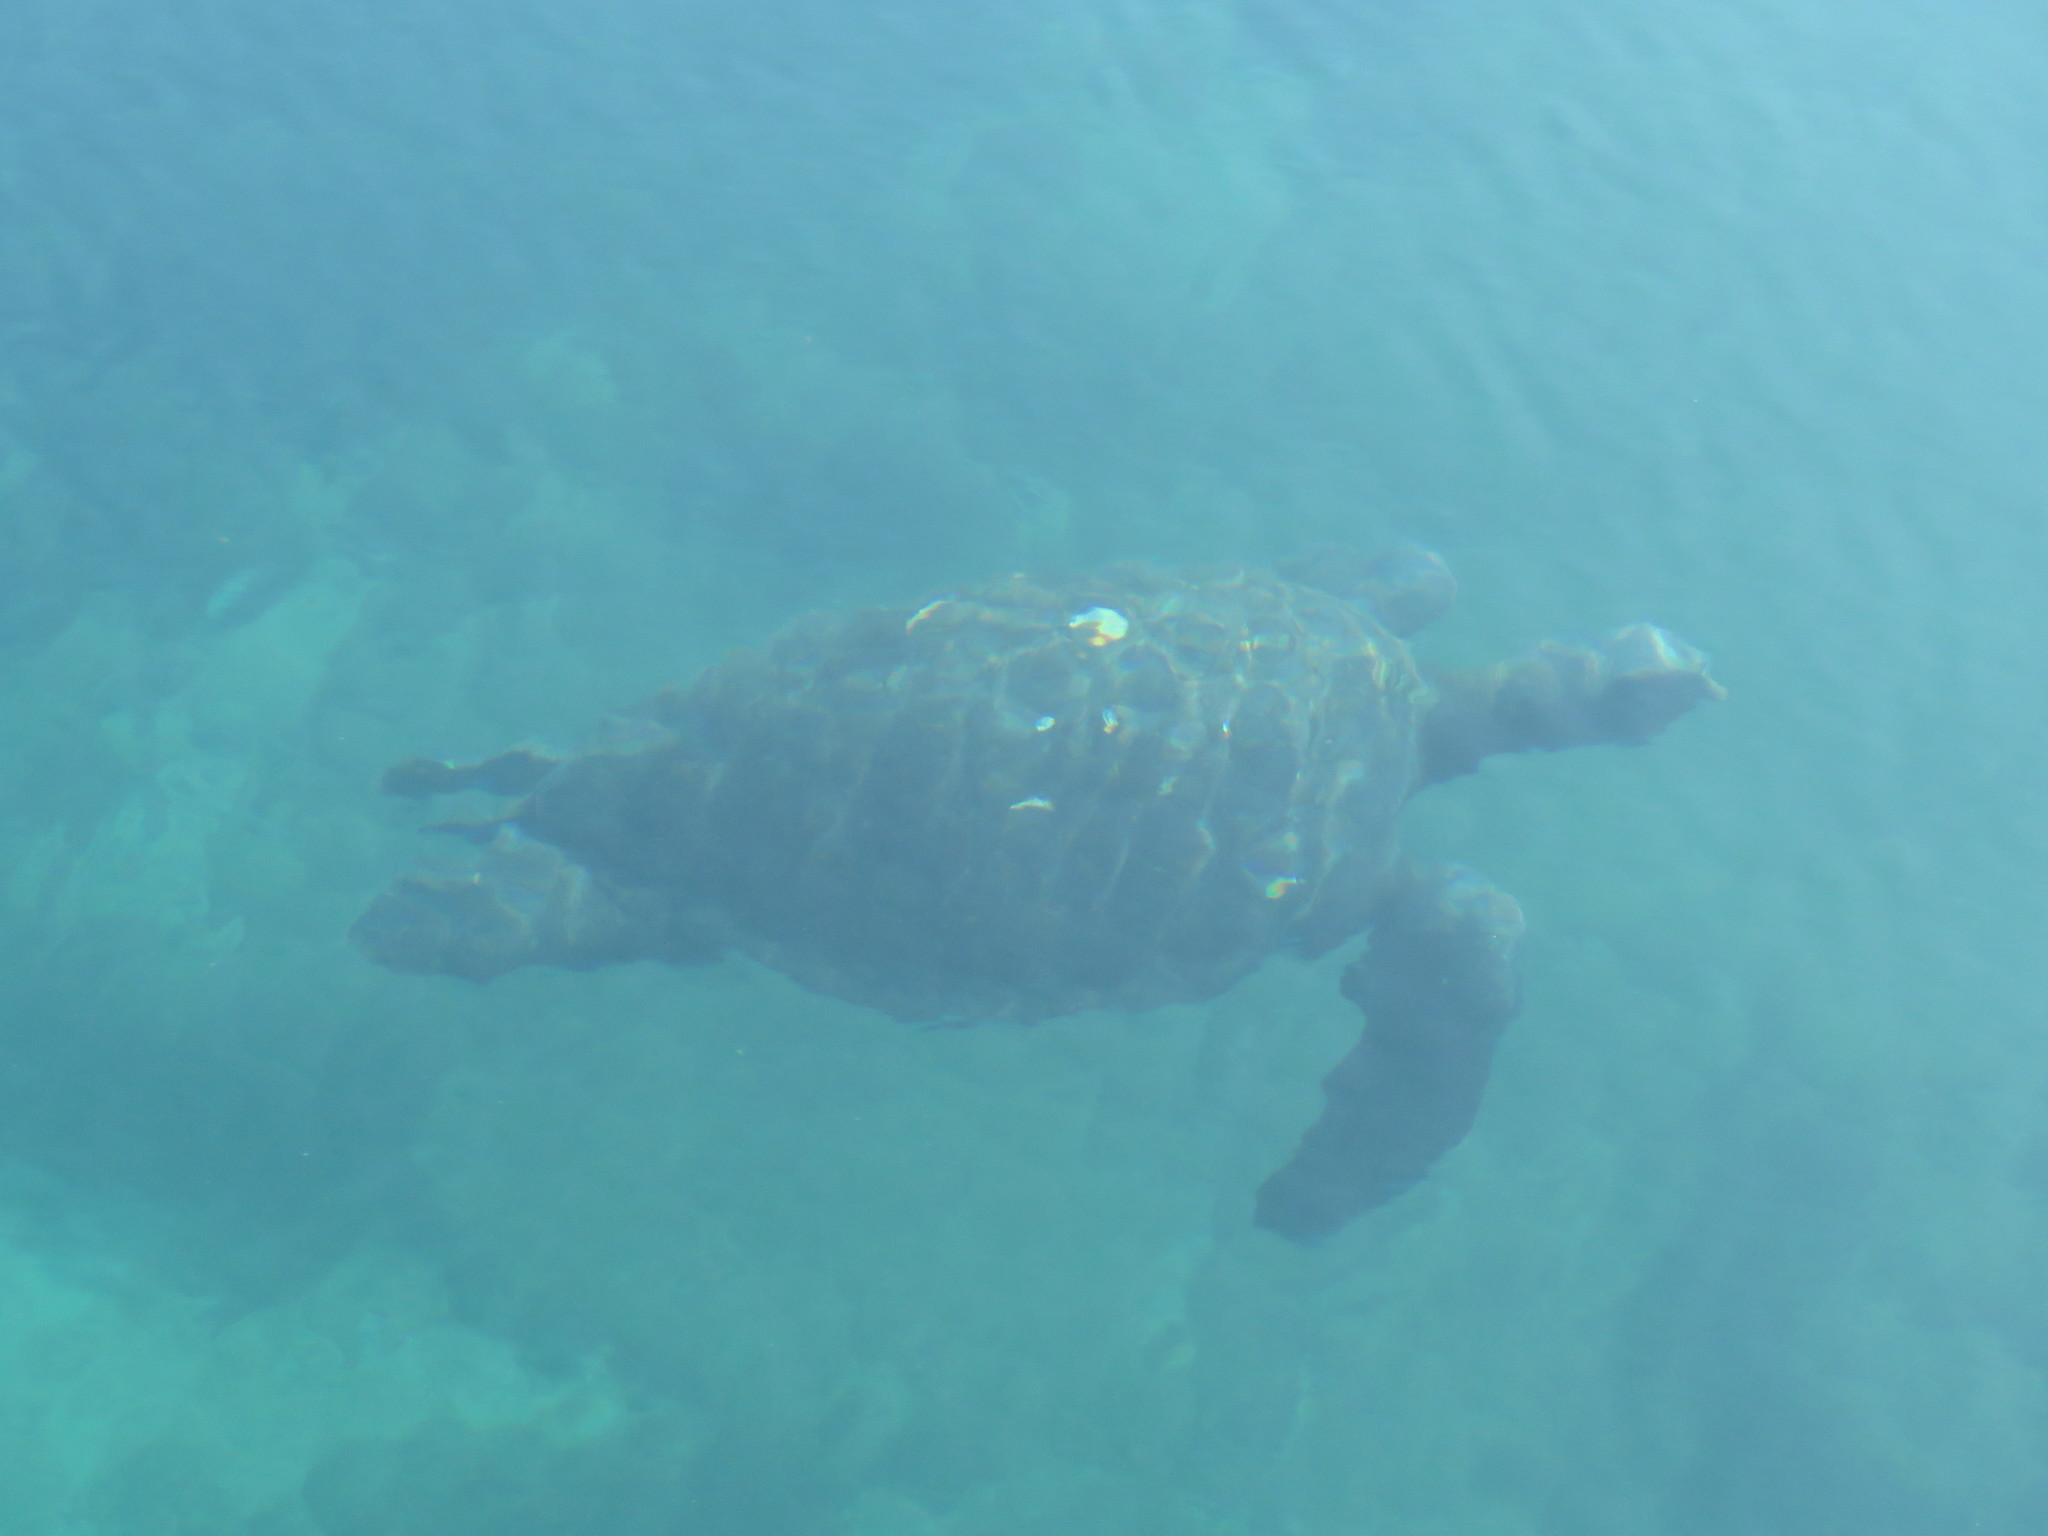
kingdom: Animalia
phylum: Chordata
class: Testudines
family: Cheloniidae
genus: Chelonia
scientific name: Chelonia mydas
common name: Green turtle
